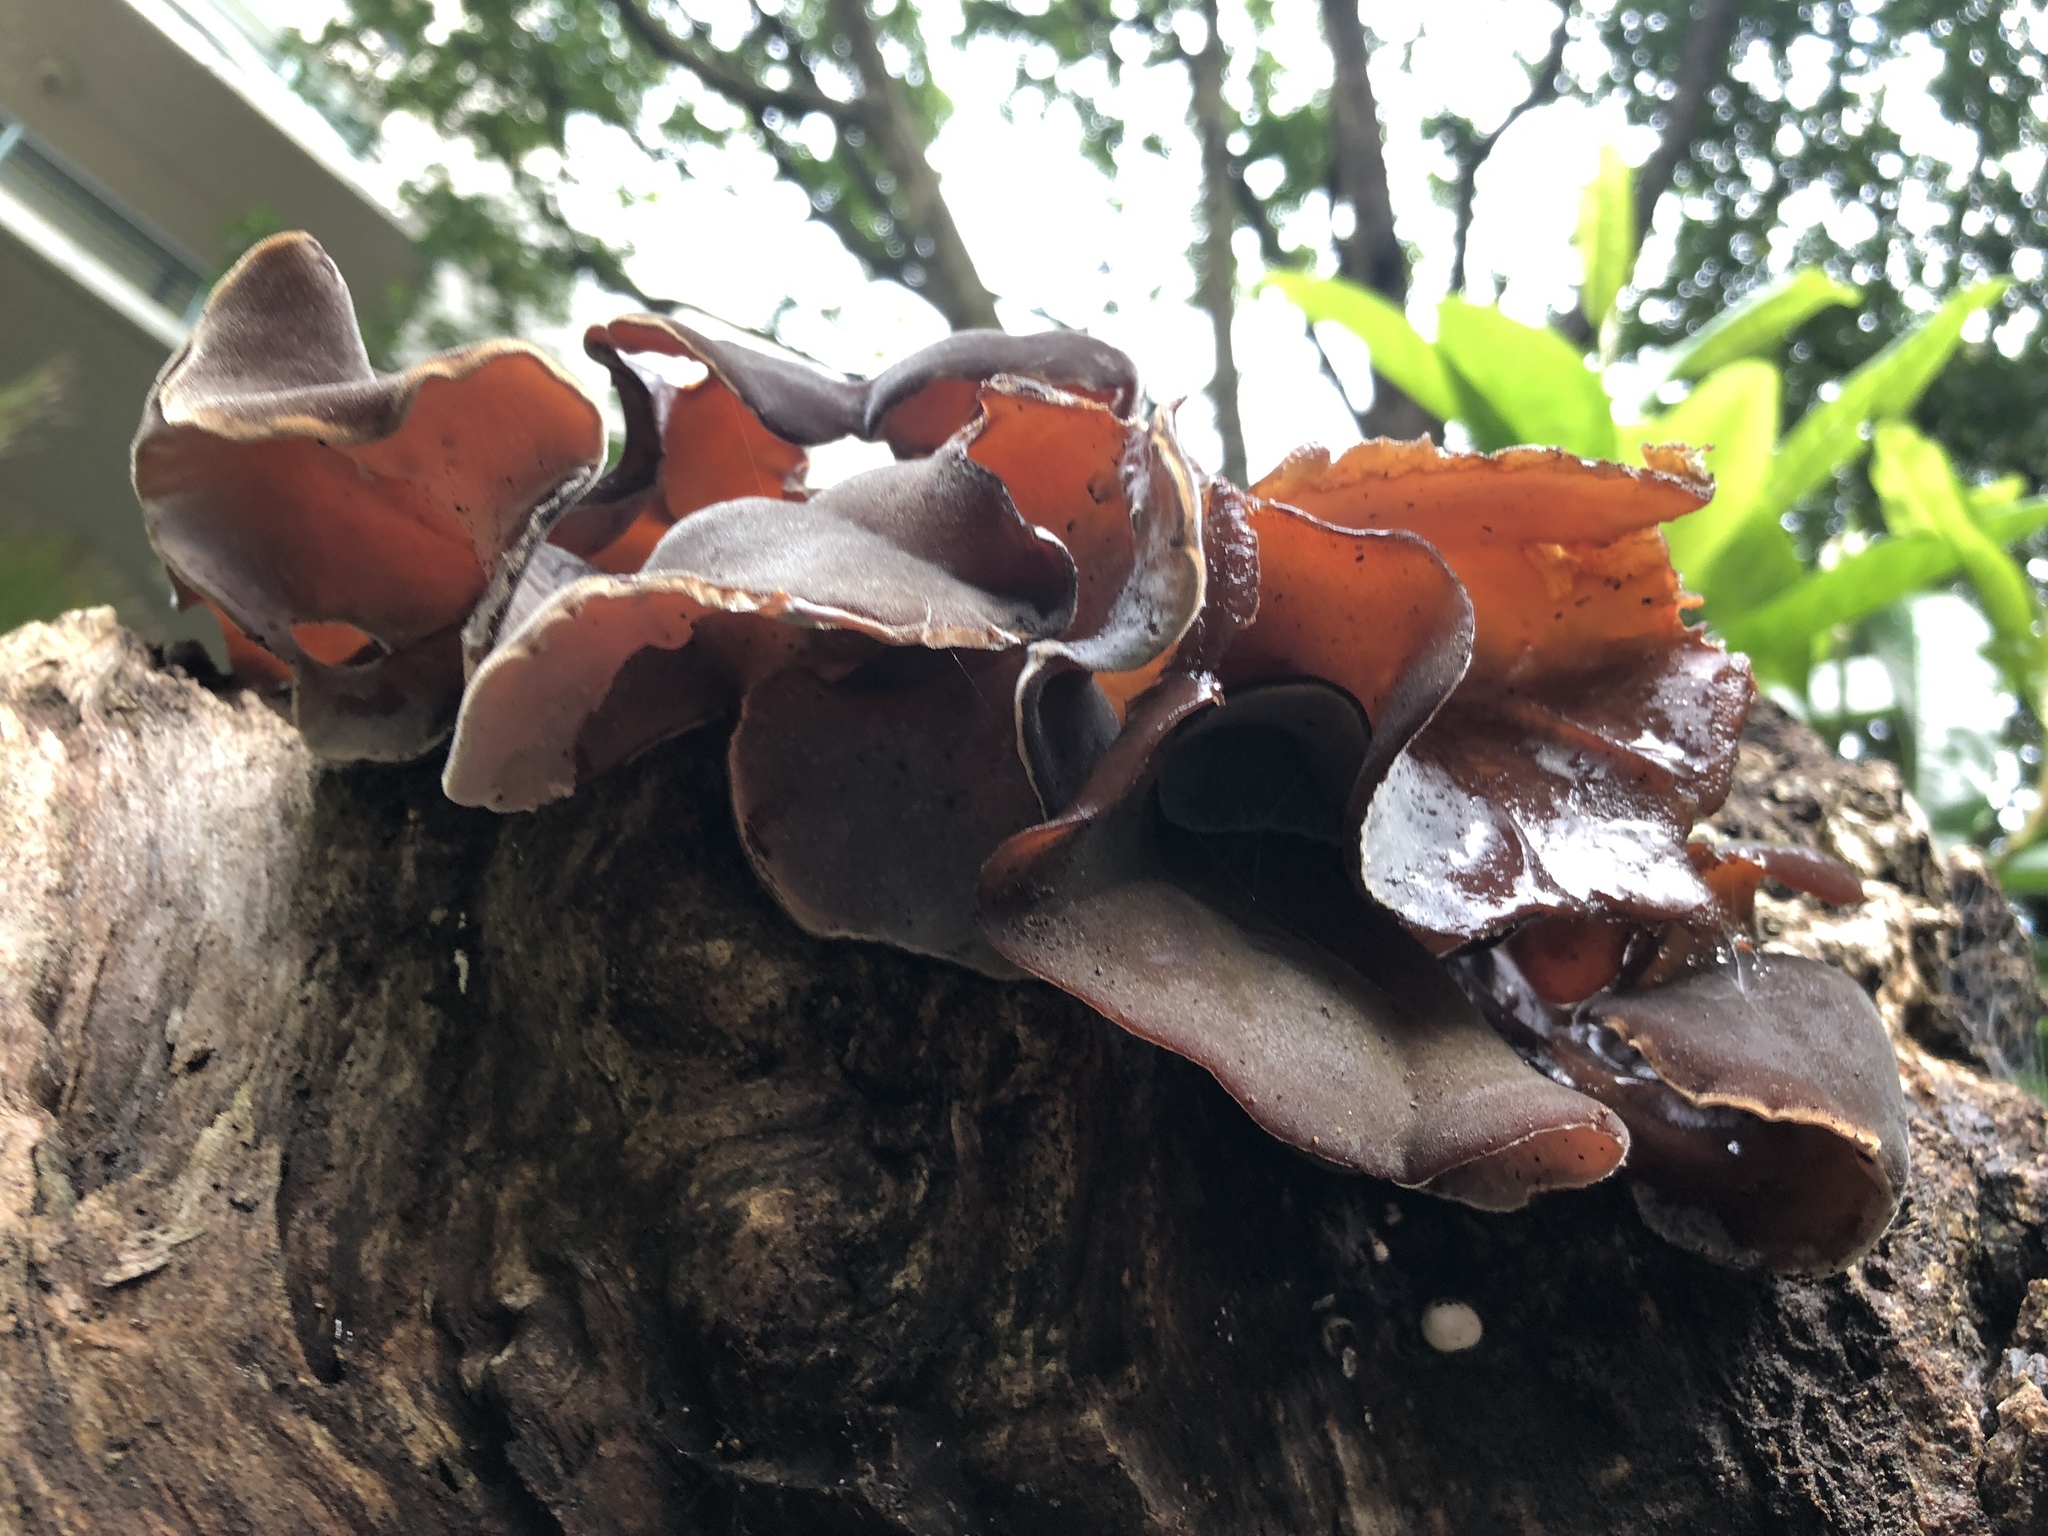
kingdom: Fungi
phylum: Basidiomycota
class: Agaricomycetes
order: Auriculariales
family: Auriculariaceae
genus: Auricularia
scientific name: Auricularia cornea
